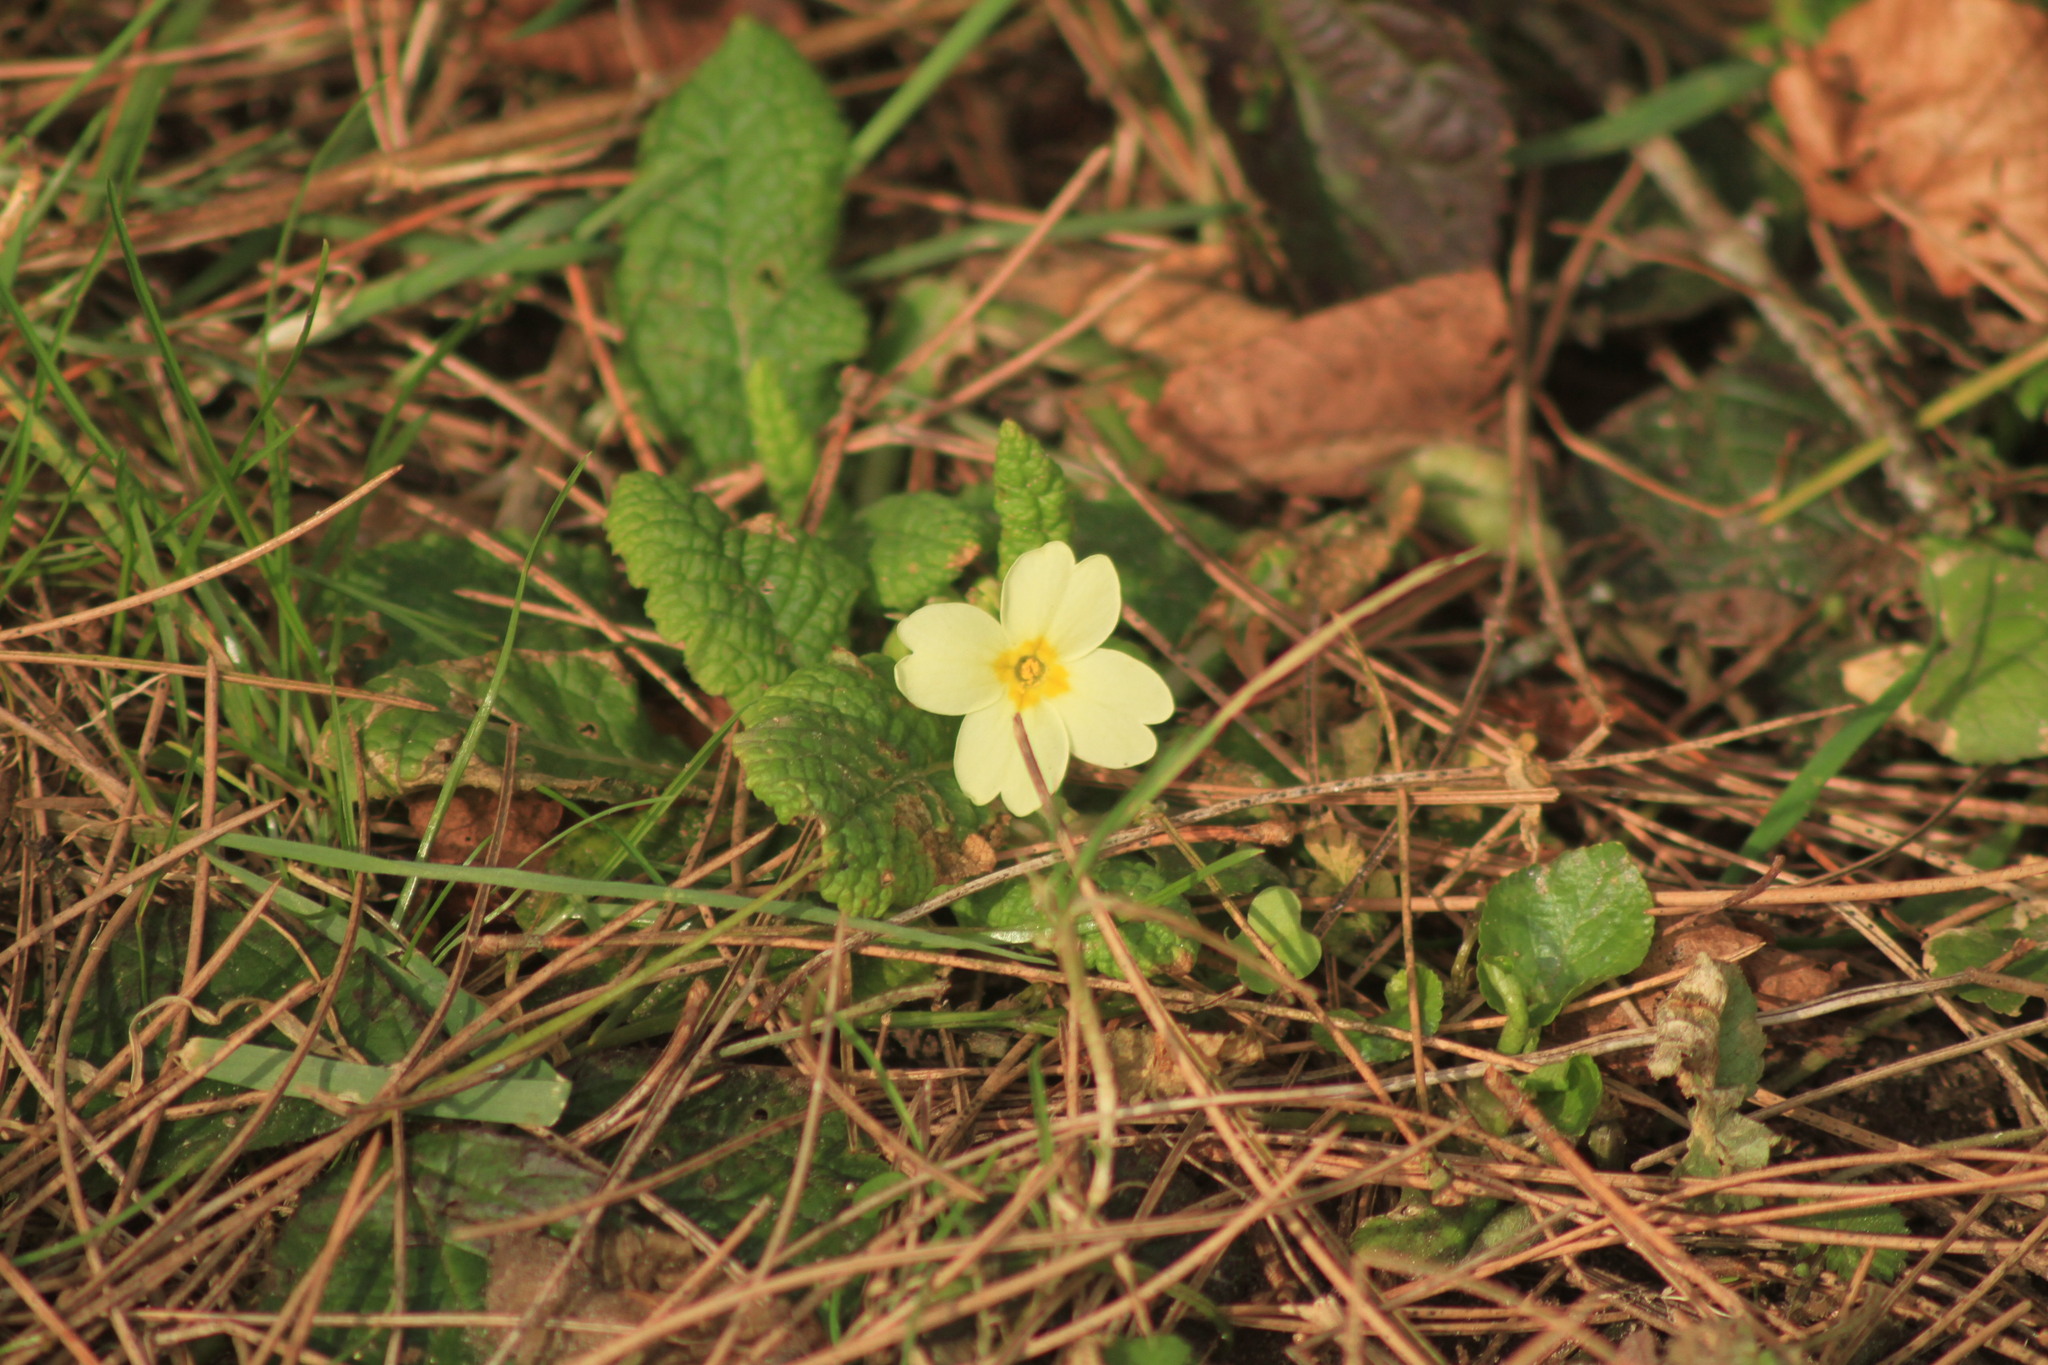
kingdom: Plantae
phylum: Tracheophyta
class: Magnoliopsida
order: Ericales
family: Primulaceae
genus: Primula
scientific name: Primula vulgaris
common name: Primrose
